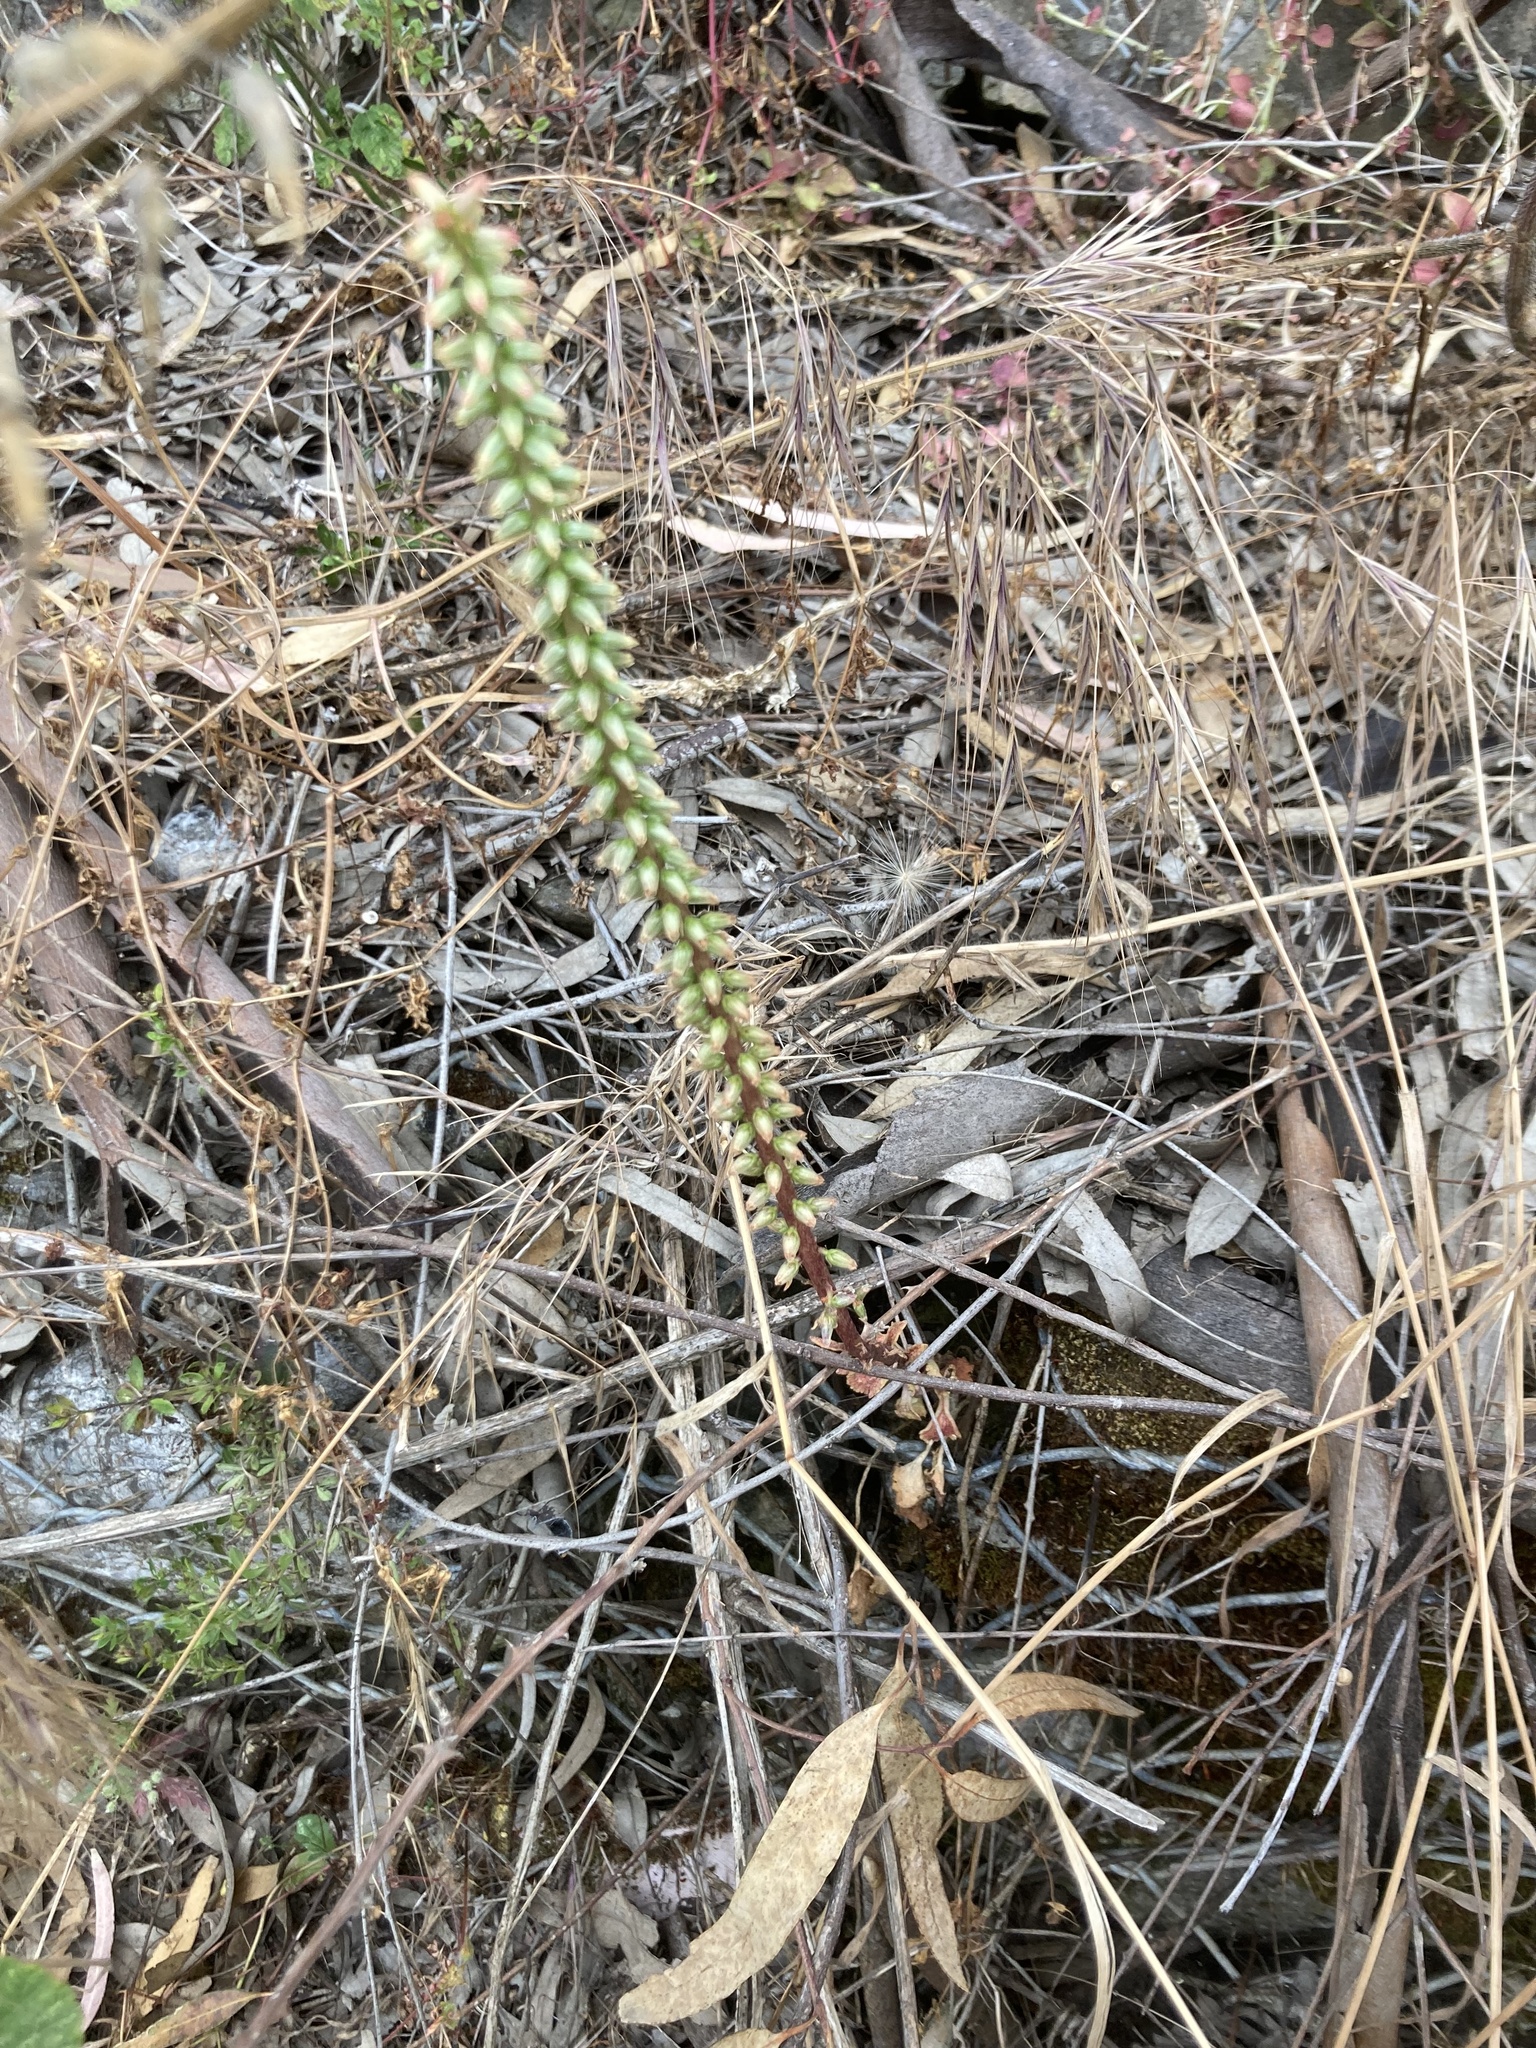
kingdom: Plantae
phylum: Tracheophyta
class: Magnoliopsida
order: Saxifragales
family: Crassulaceae
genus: Umbilicus
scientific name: Umbilicus horizontalis
